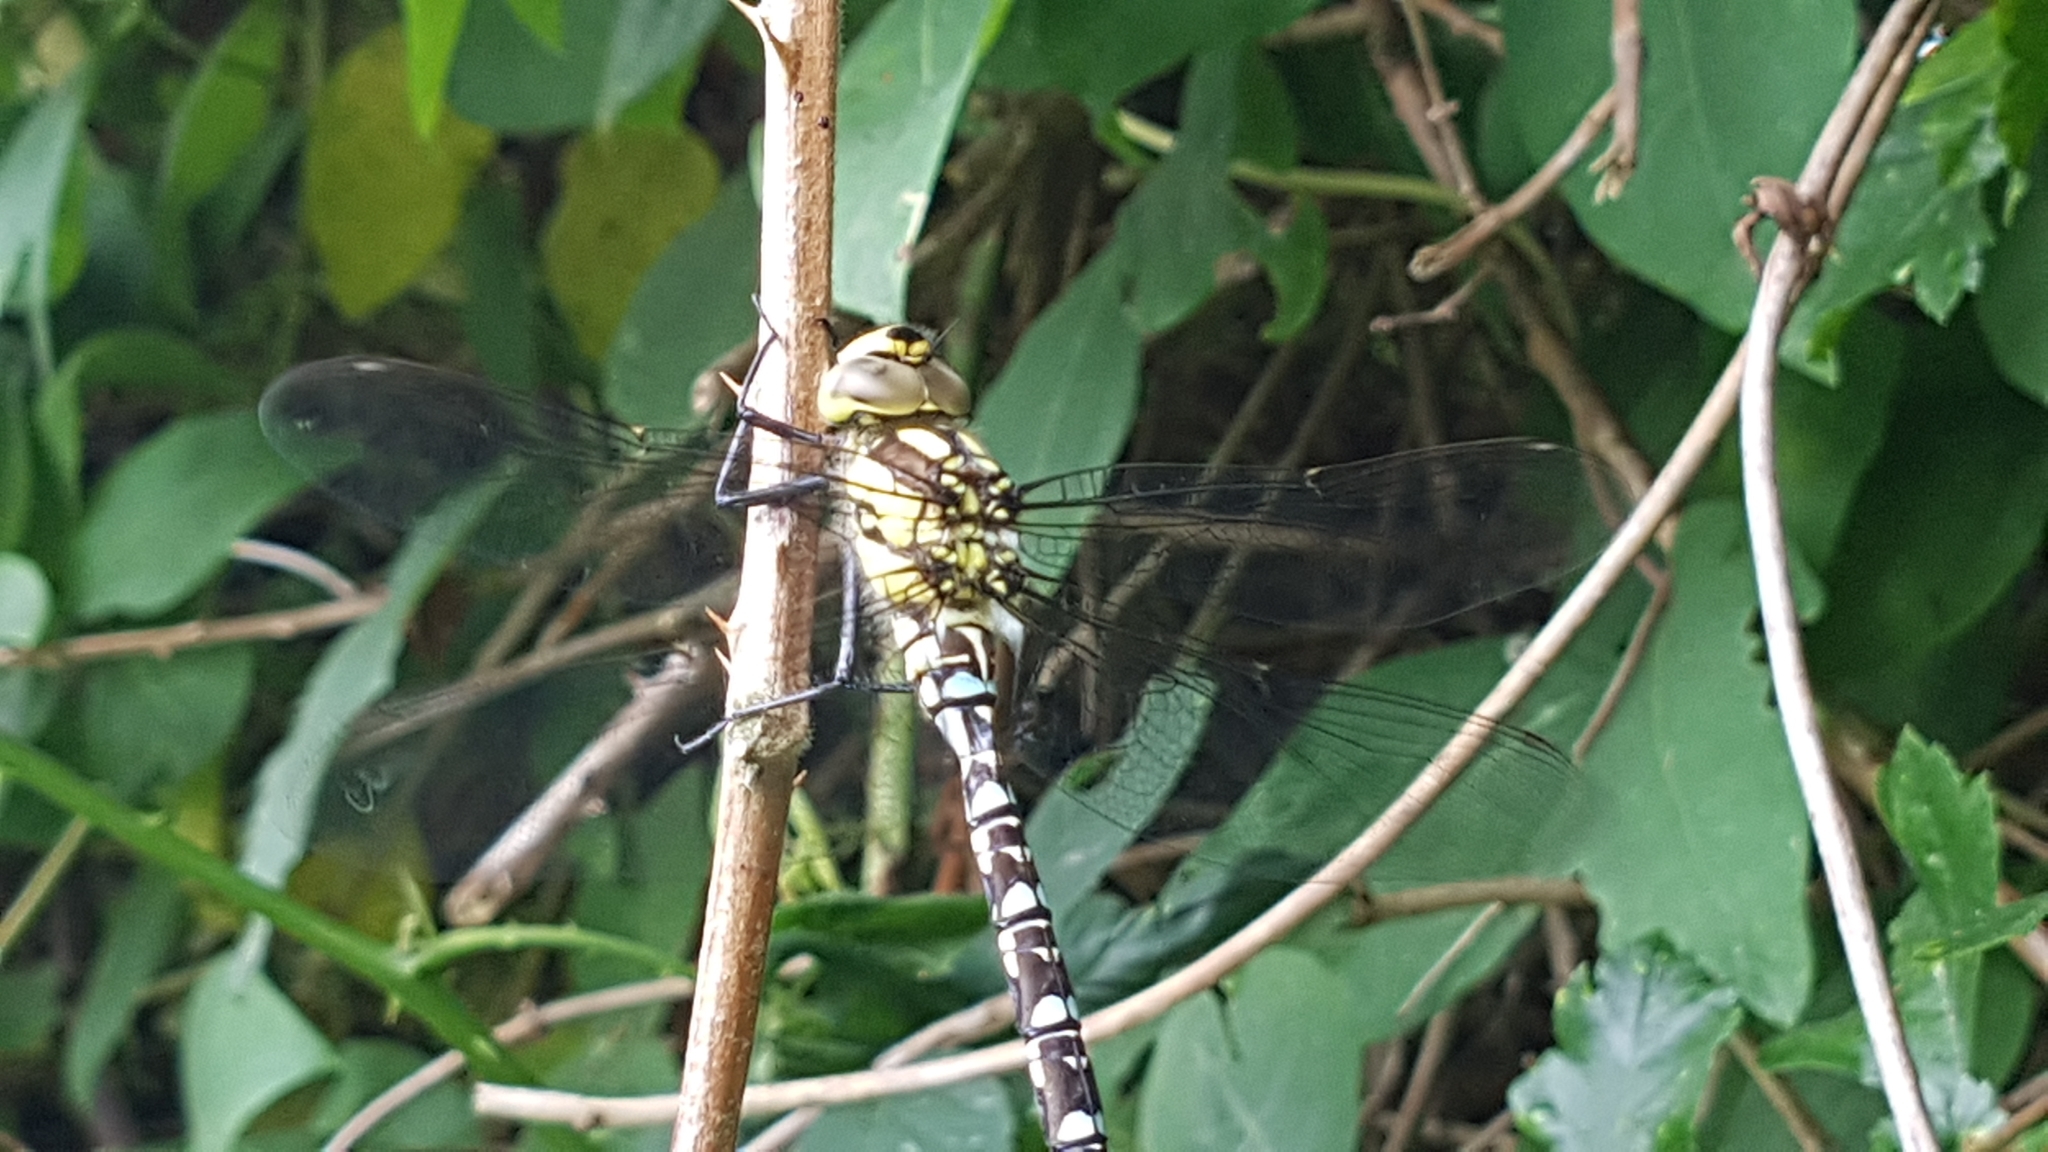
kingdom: Animalia
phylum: Arthropoda
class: Insecta
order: Odonata
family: Aeshnidae
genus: Aeshna
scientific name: Aeshna cyanea
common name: Southern hawker
